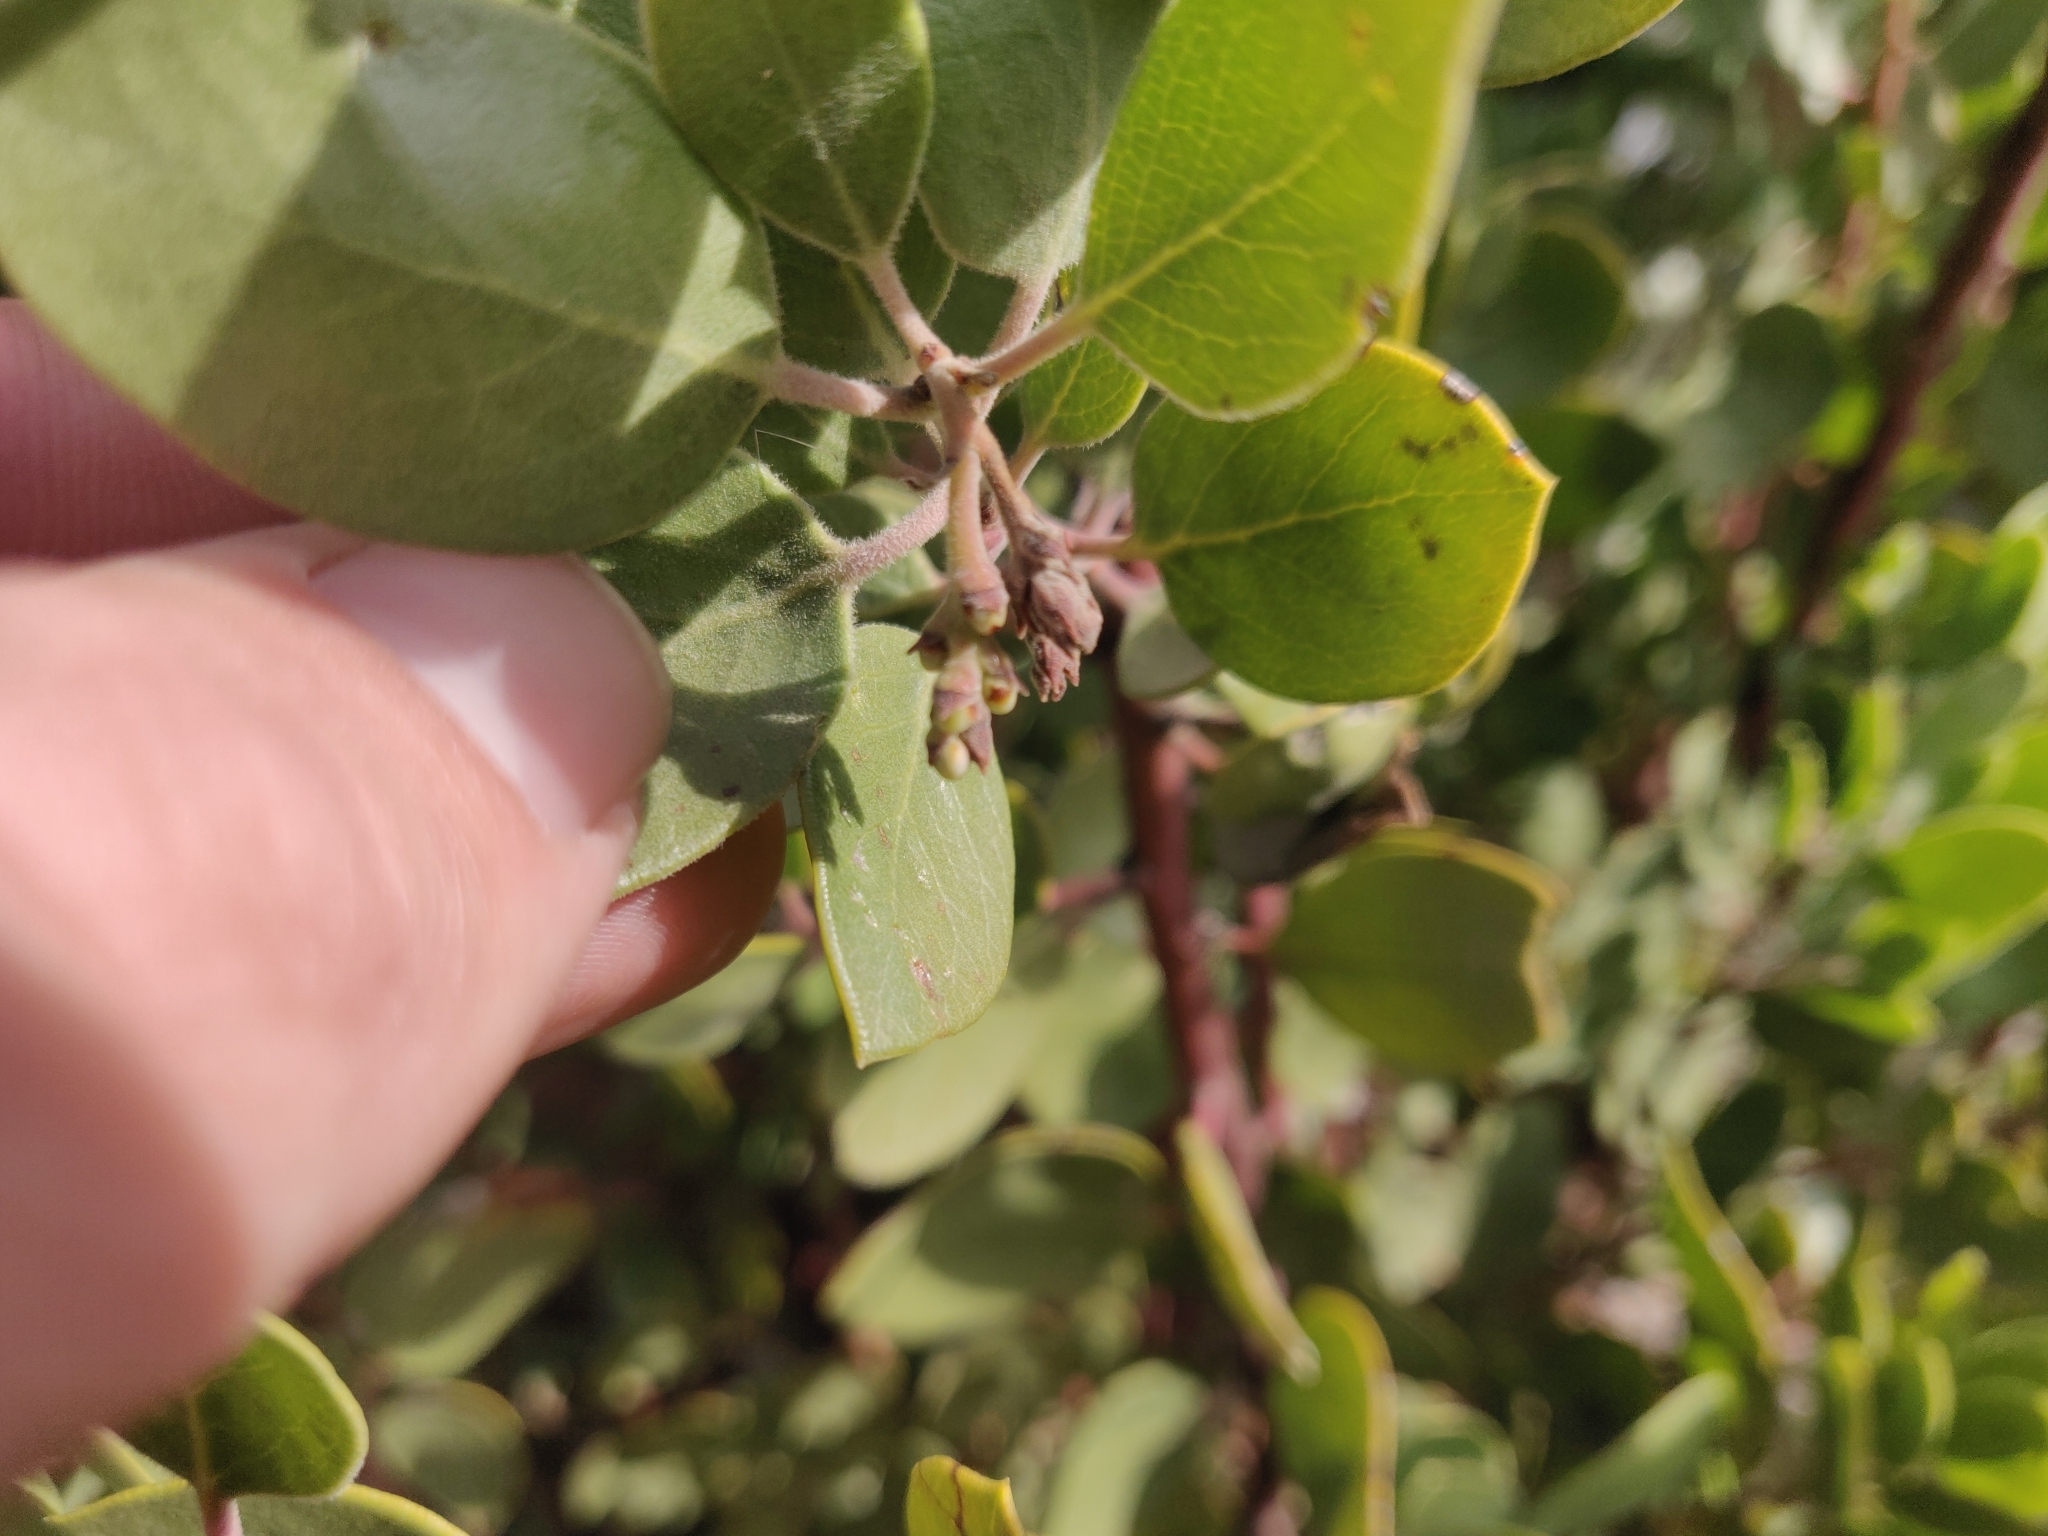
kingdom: Plantae
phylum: Tracheophyta
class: Magnoliopsida
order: Ericales
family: Ericaceae
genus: Arctostaphylos
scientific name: Arctostaphylos manzanita
